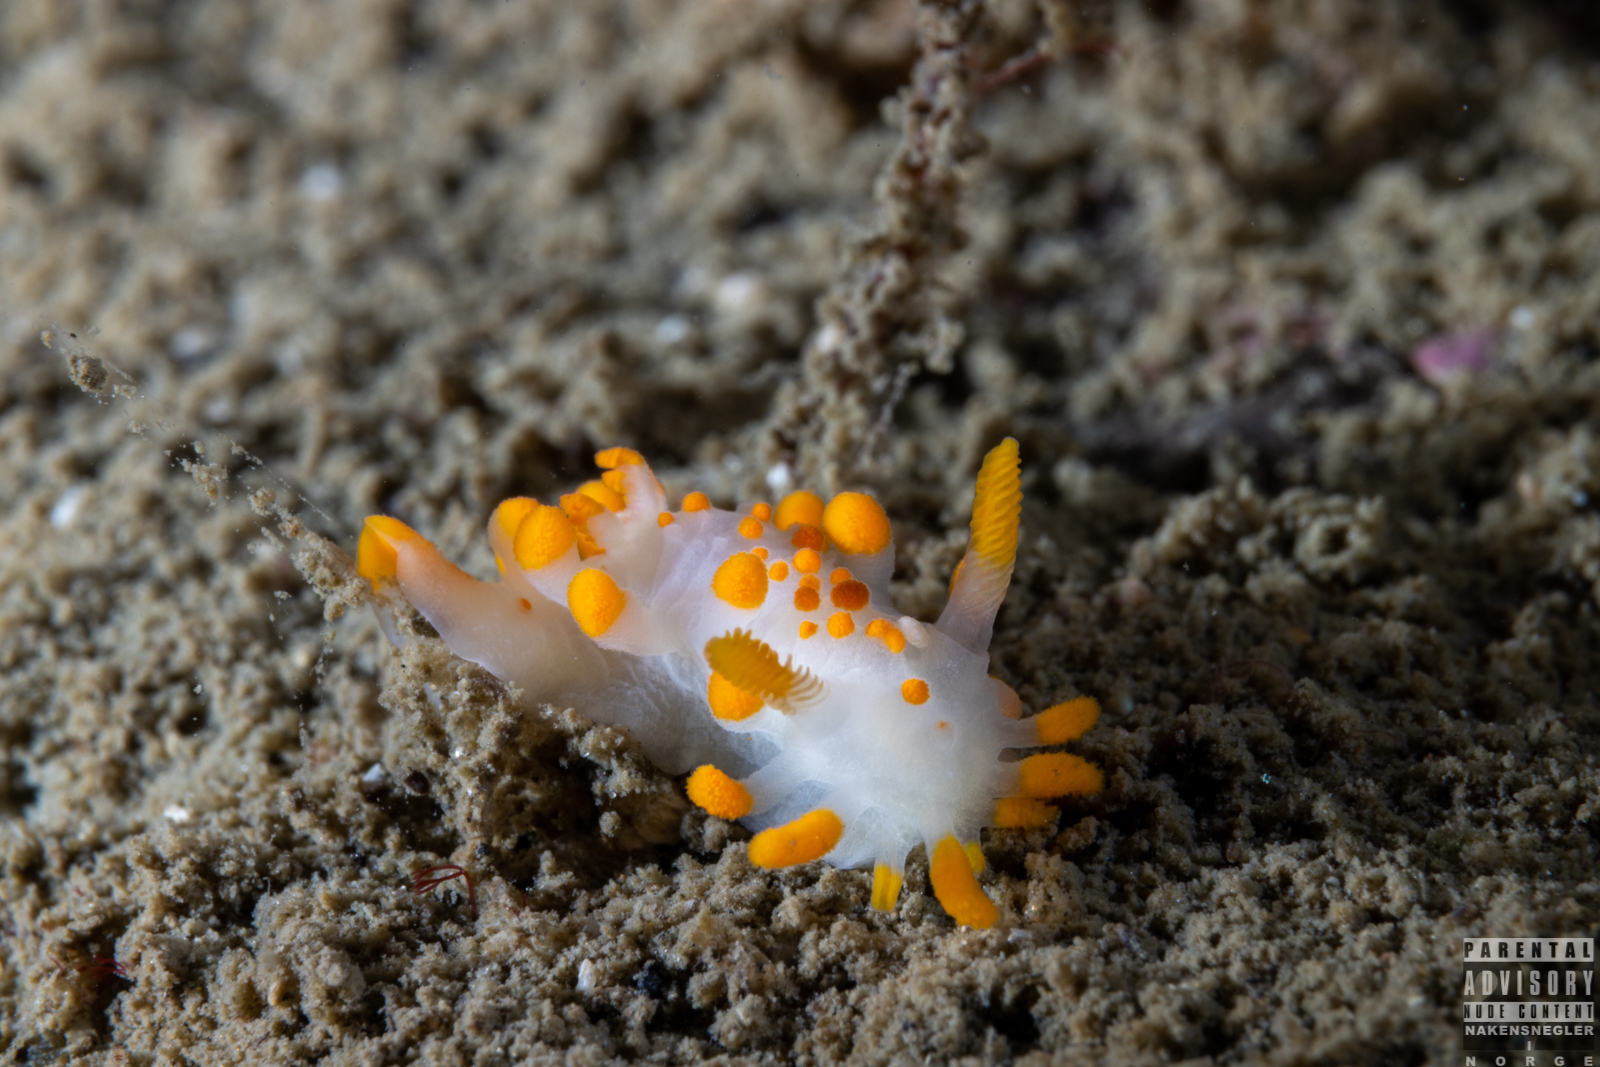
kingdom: Animalia
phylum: Mollusca
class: Gastropoda
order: Nudibranchia
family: Polyceridae
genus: Limacia
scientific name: Limacia clavigera
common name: Orange-clubbed sea slug
